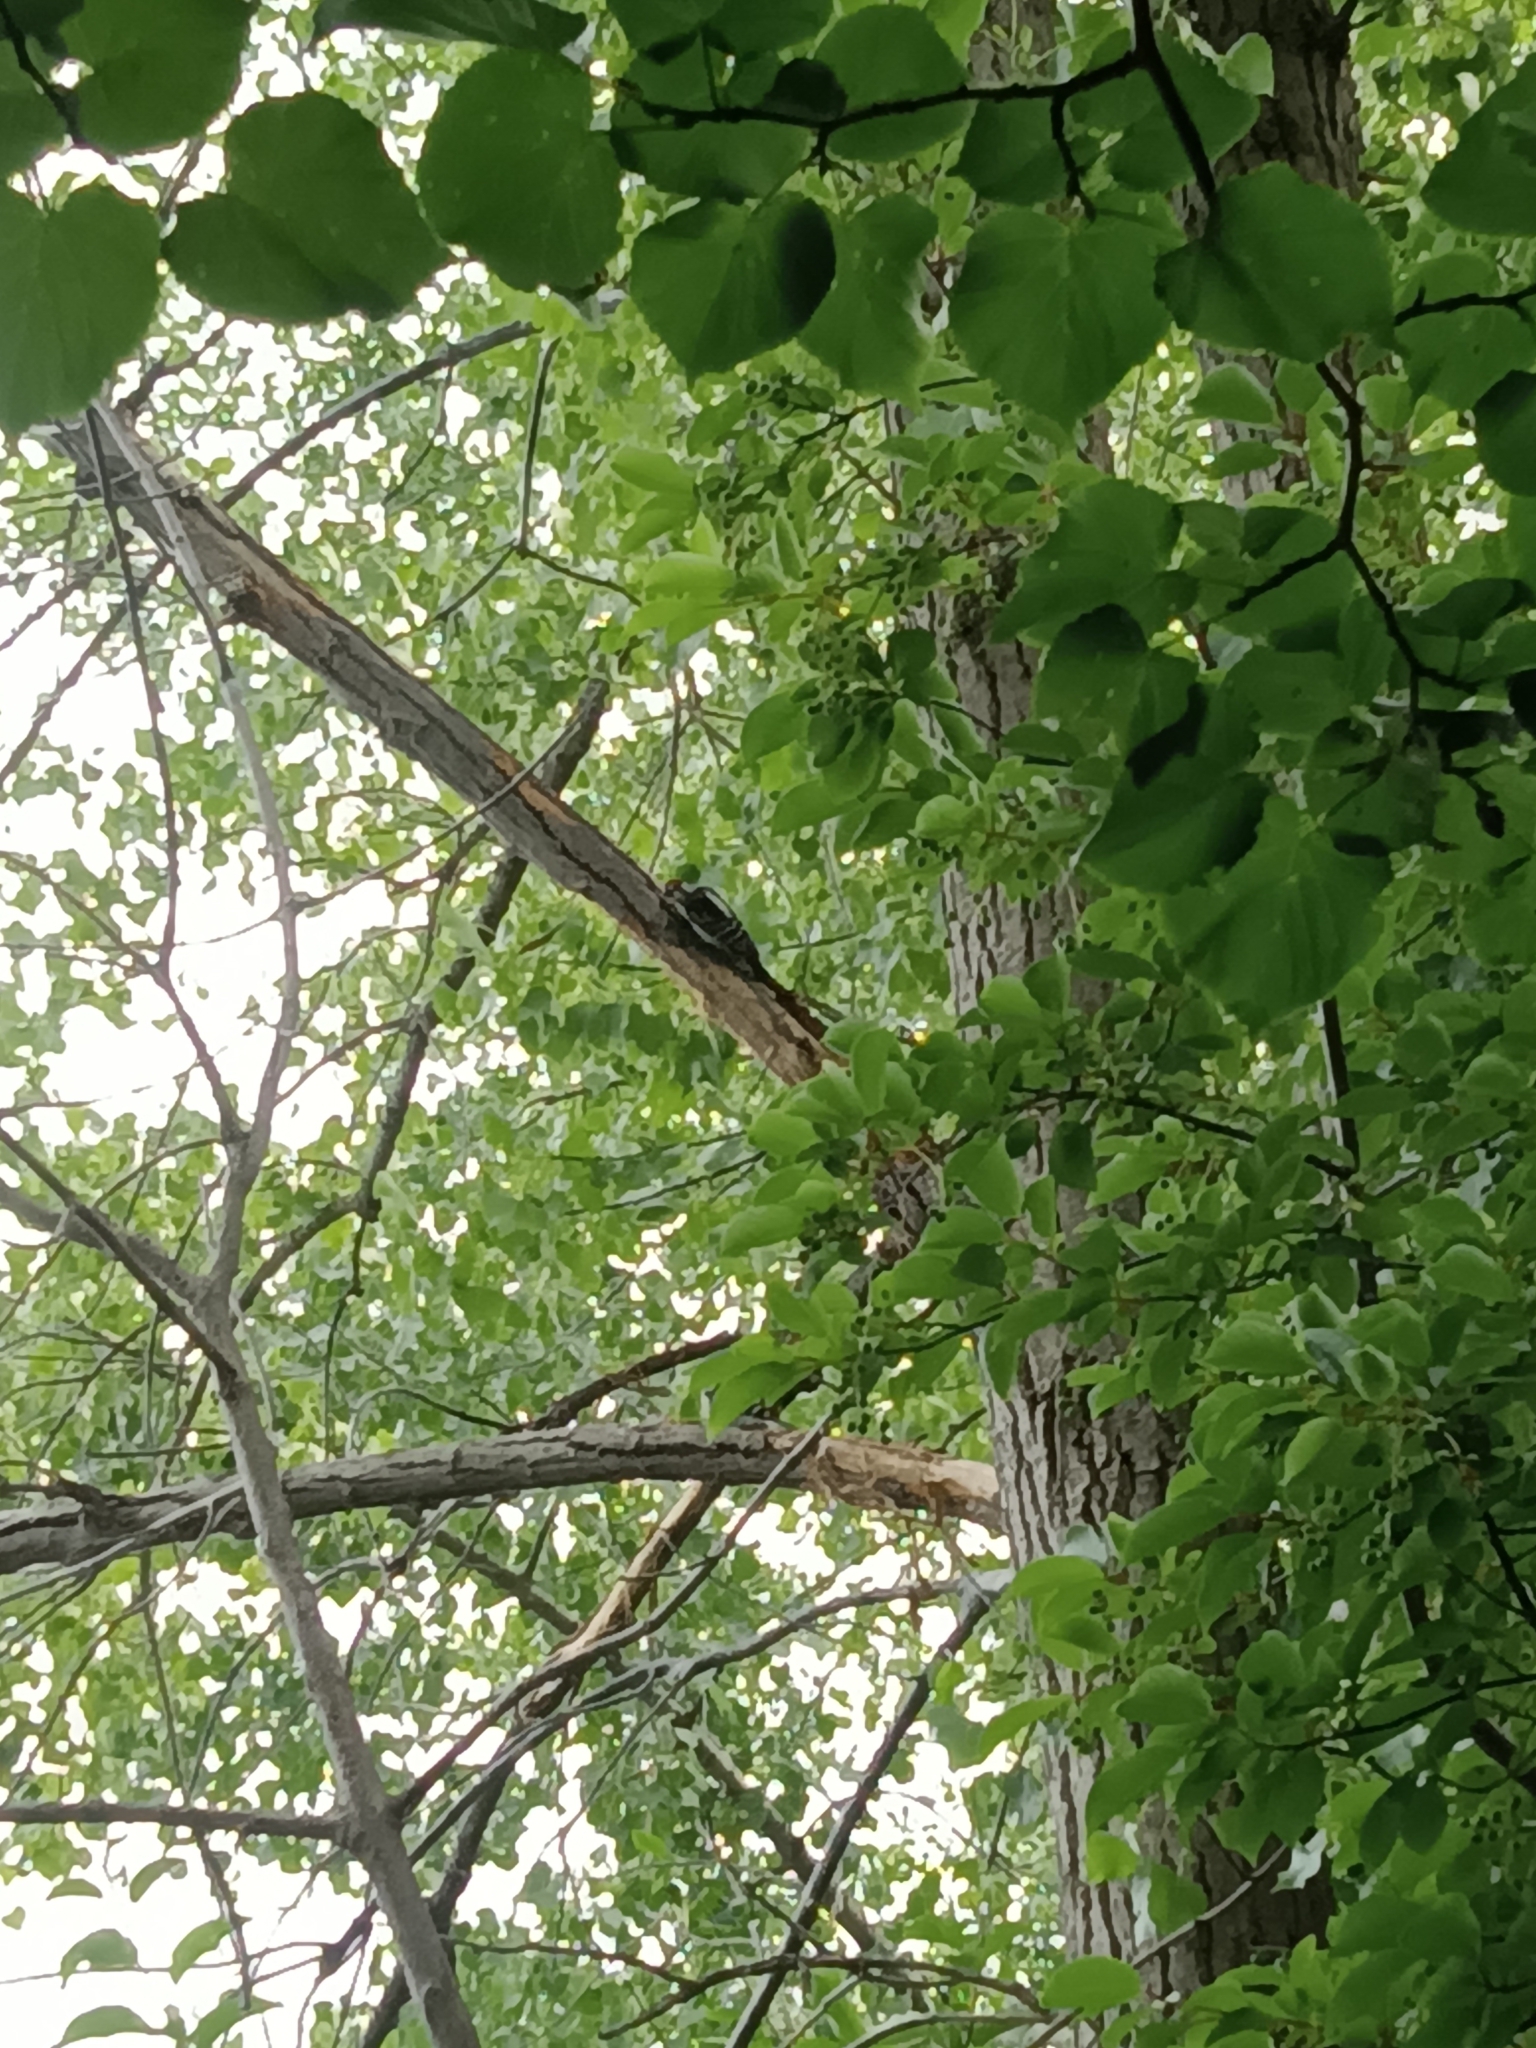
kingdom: Animalia
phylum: Chordata
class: Aves
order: Piciformes
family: Picidae
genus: Dryobates
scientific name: Dryobates pubescens
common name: Downy woodpecker
